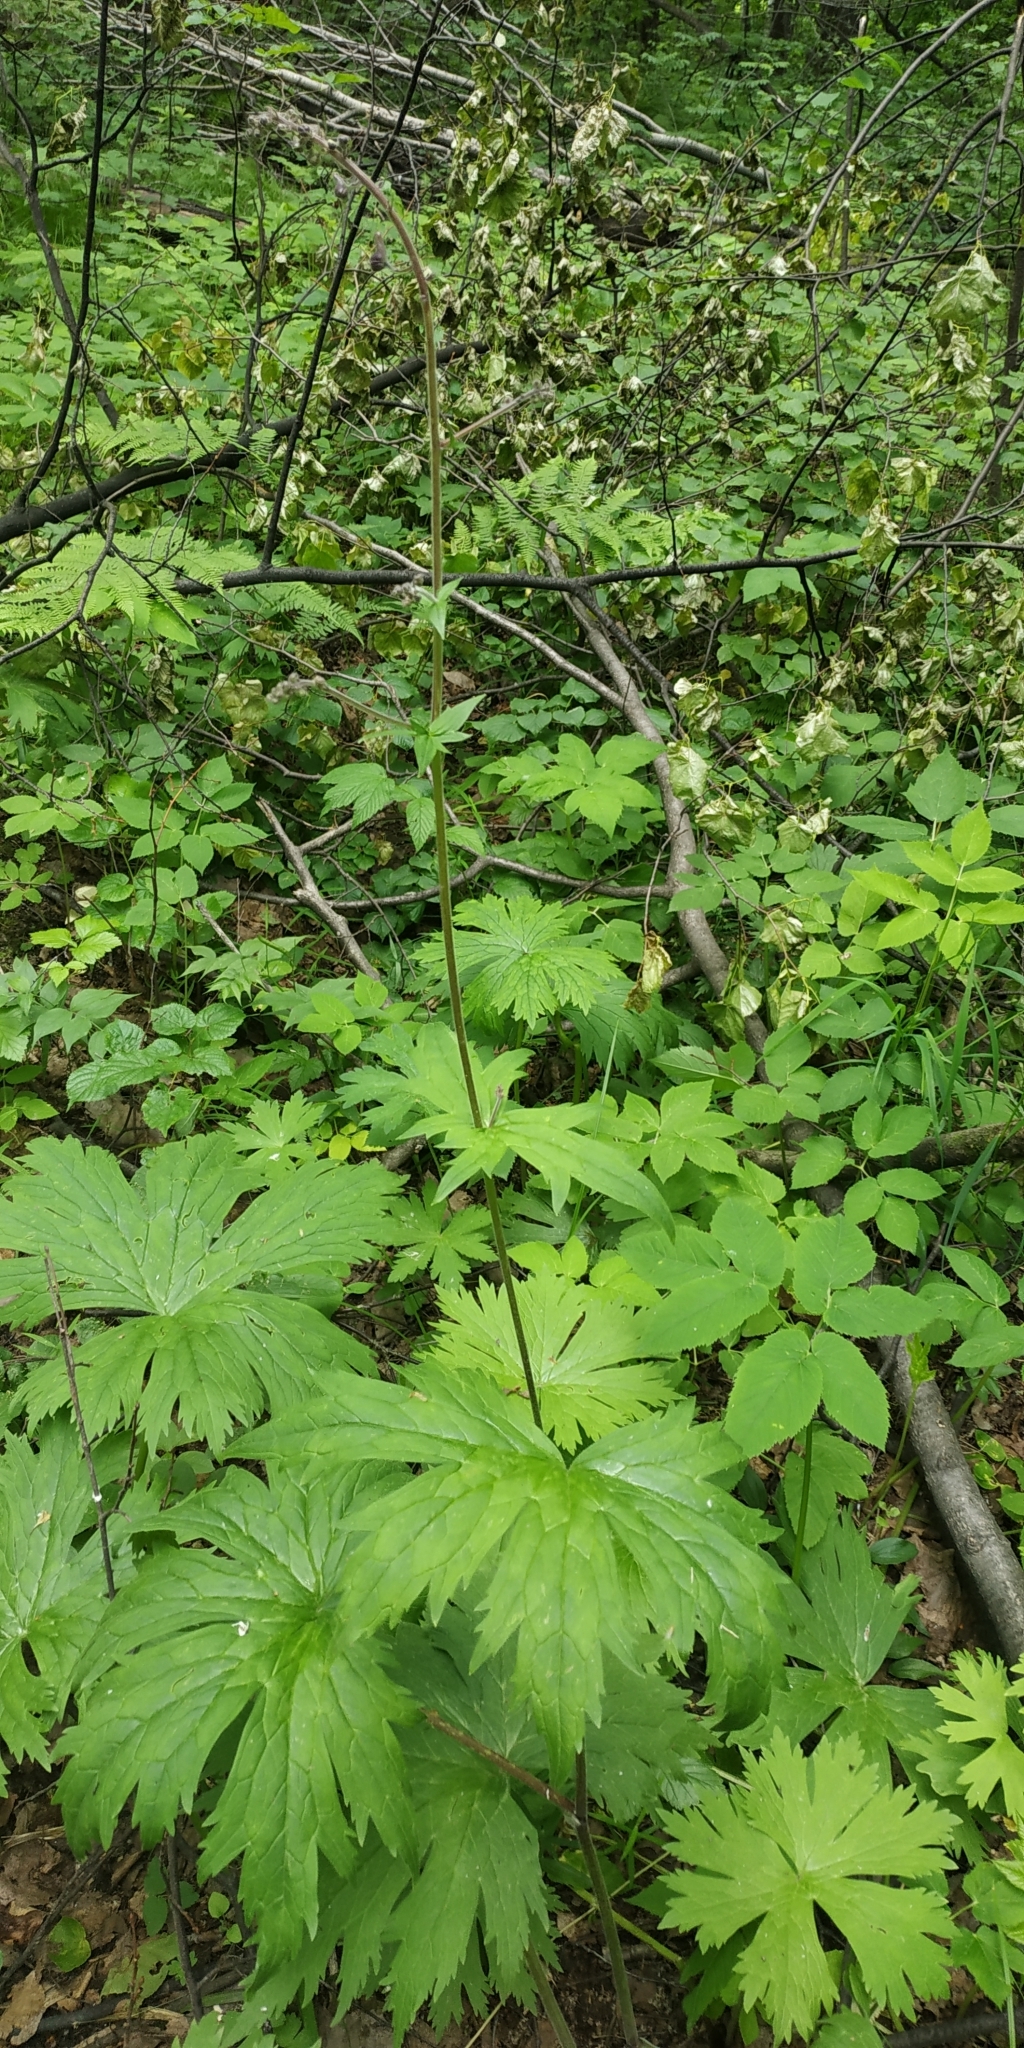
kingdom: Plantae
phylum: Tracheophyta
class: Magnoliopsida
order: Ranunculales
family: Ranunculaceae
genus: Aconitum
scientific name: Aconitum septentrionale
